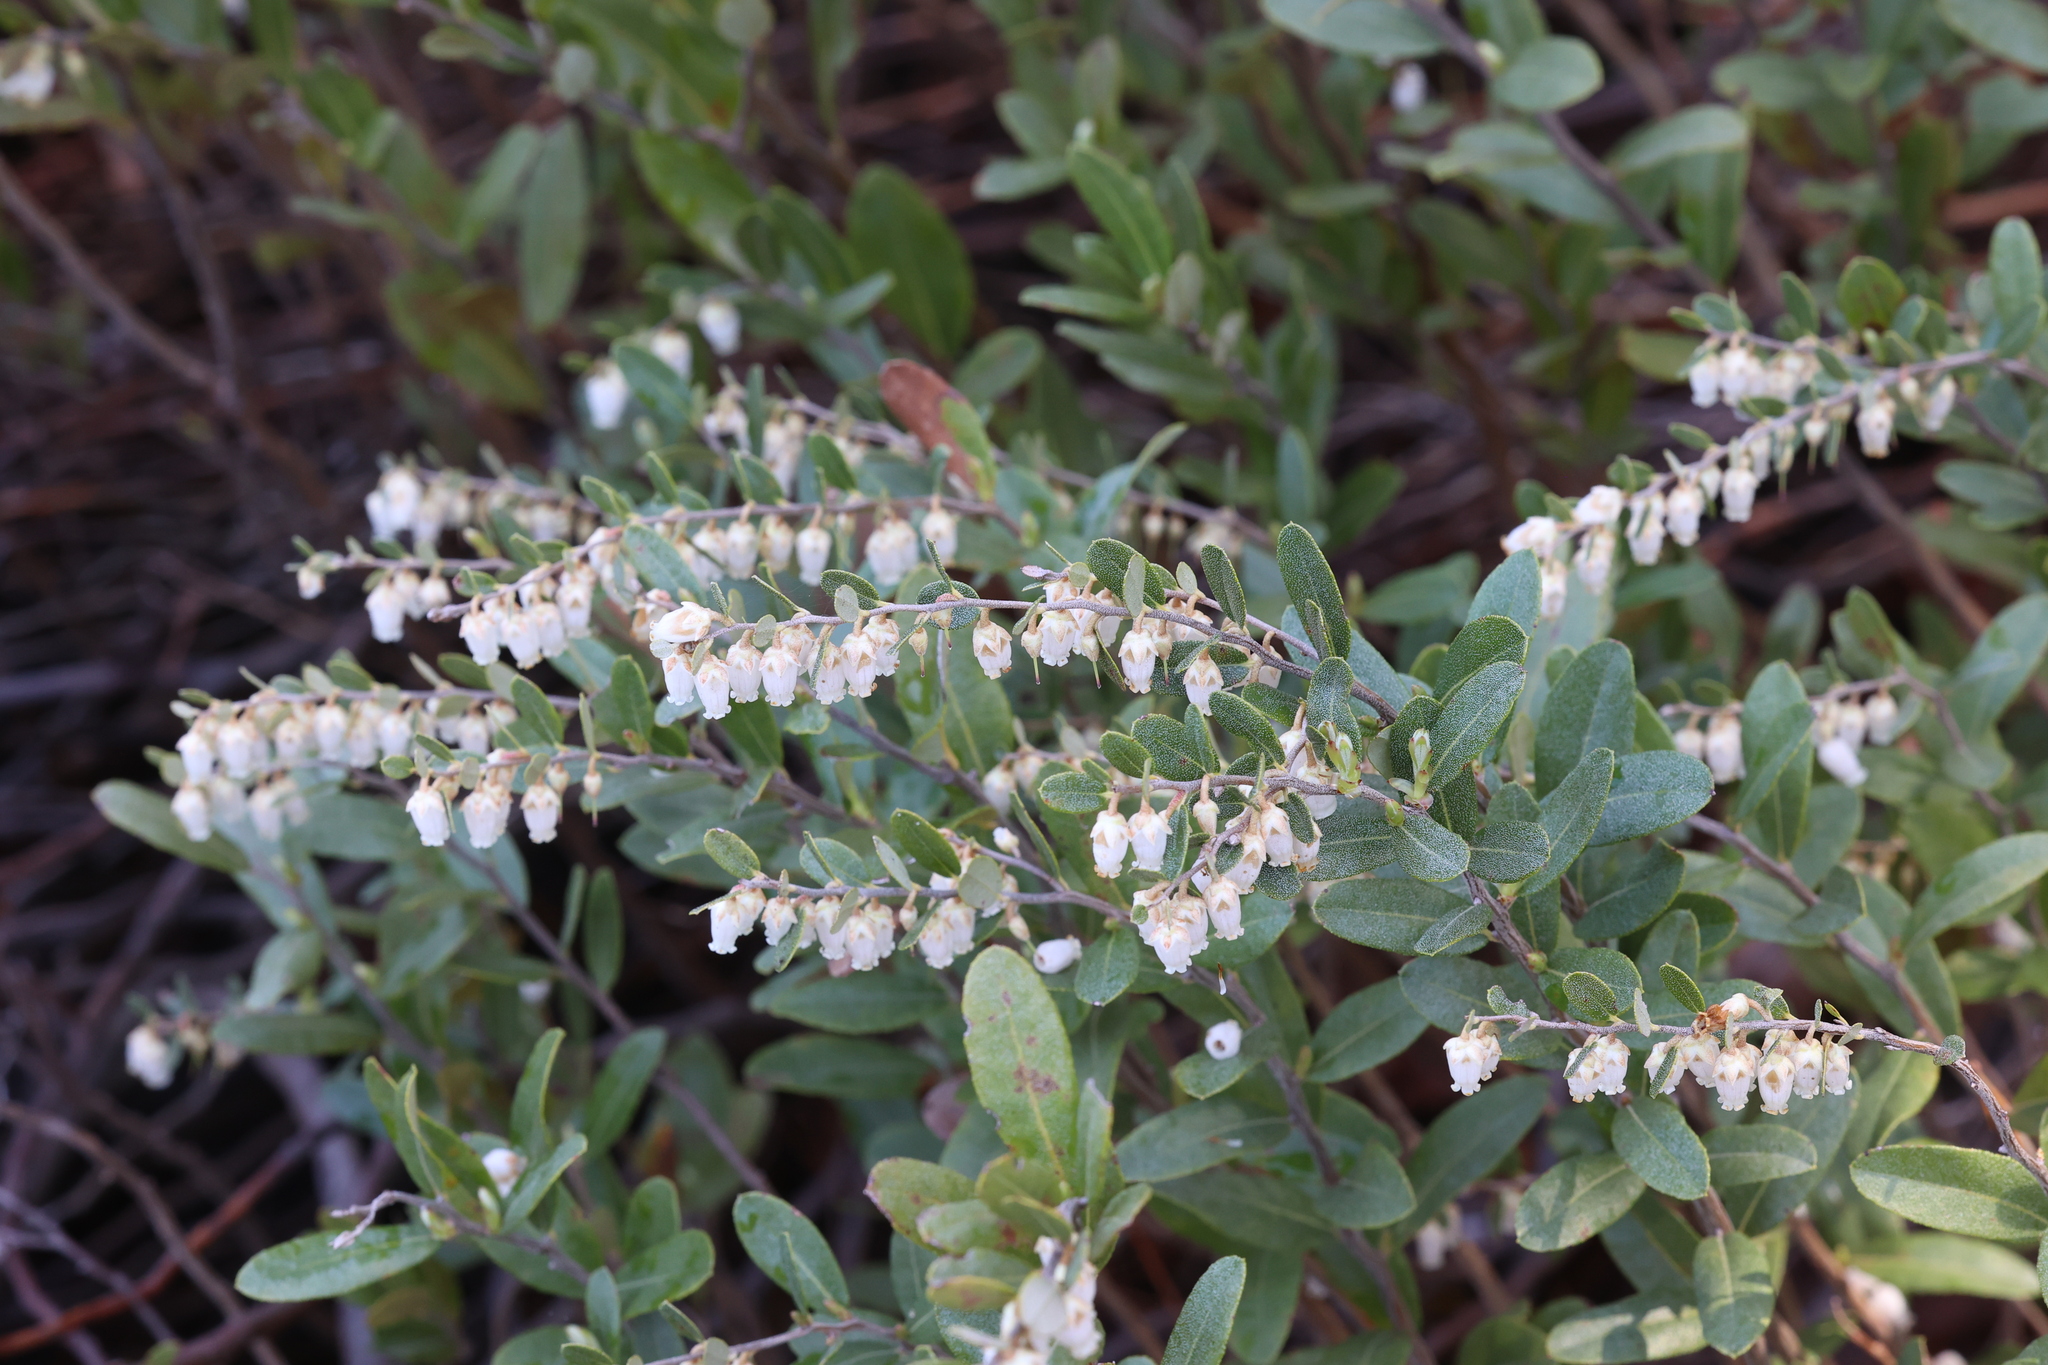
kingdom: Plantae
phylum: Tracheophyta
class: Magnoliopsida
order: Ericales
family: Ericaceae
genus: Chamaedaphne
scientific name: Chamaedaphne calyculata
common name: Leatherleaf
